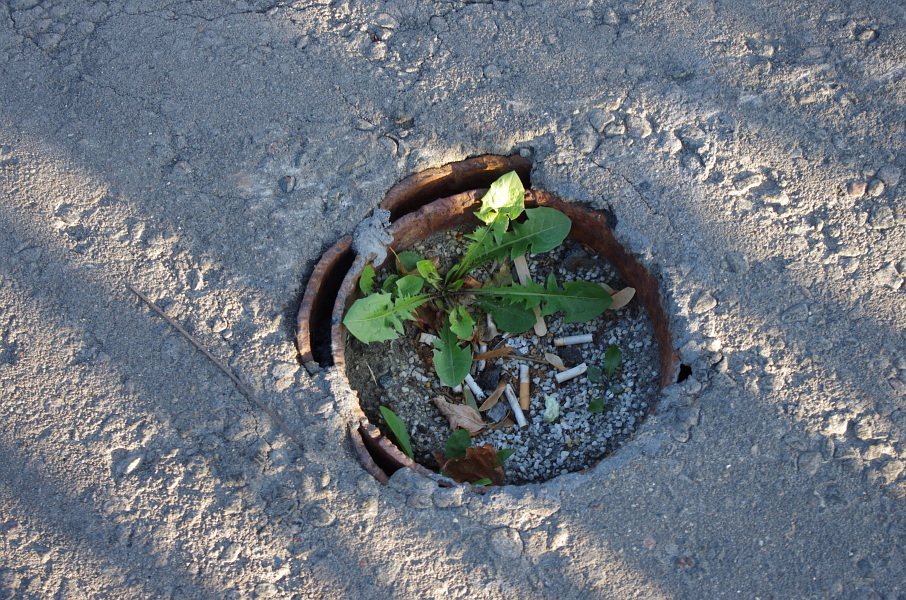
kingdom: Plantae
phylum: Tracheophyta
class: Magnoliopsida
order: Asterales
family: Asteraceae
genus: Taraxacum
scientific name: Taraxacum officinale
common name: Common dandelion
